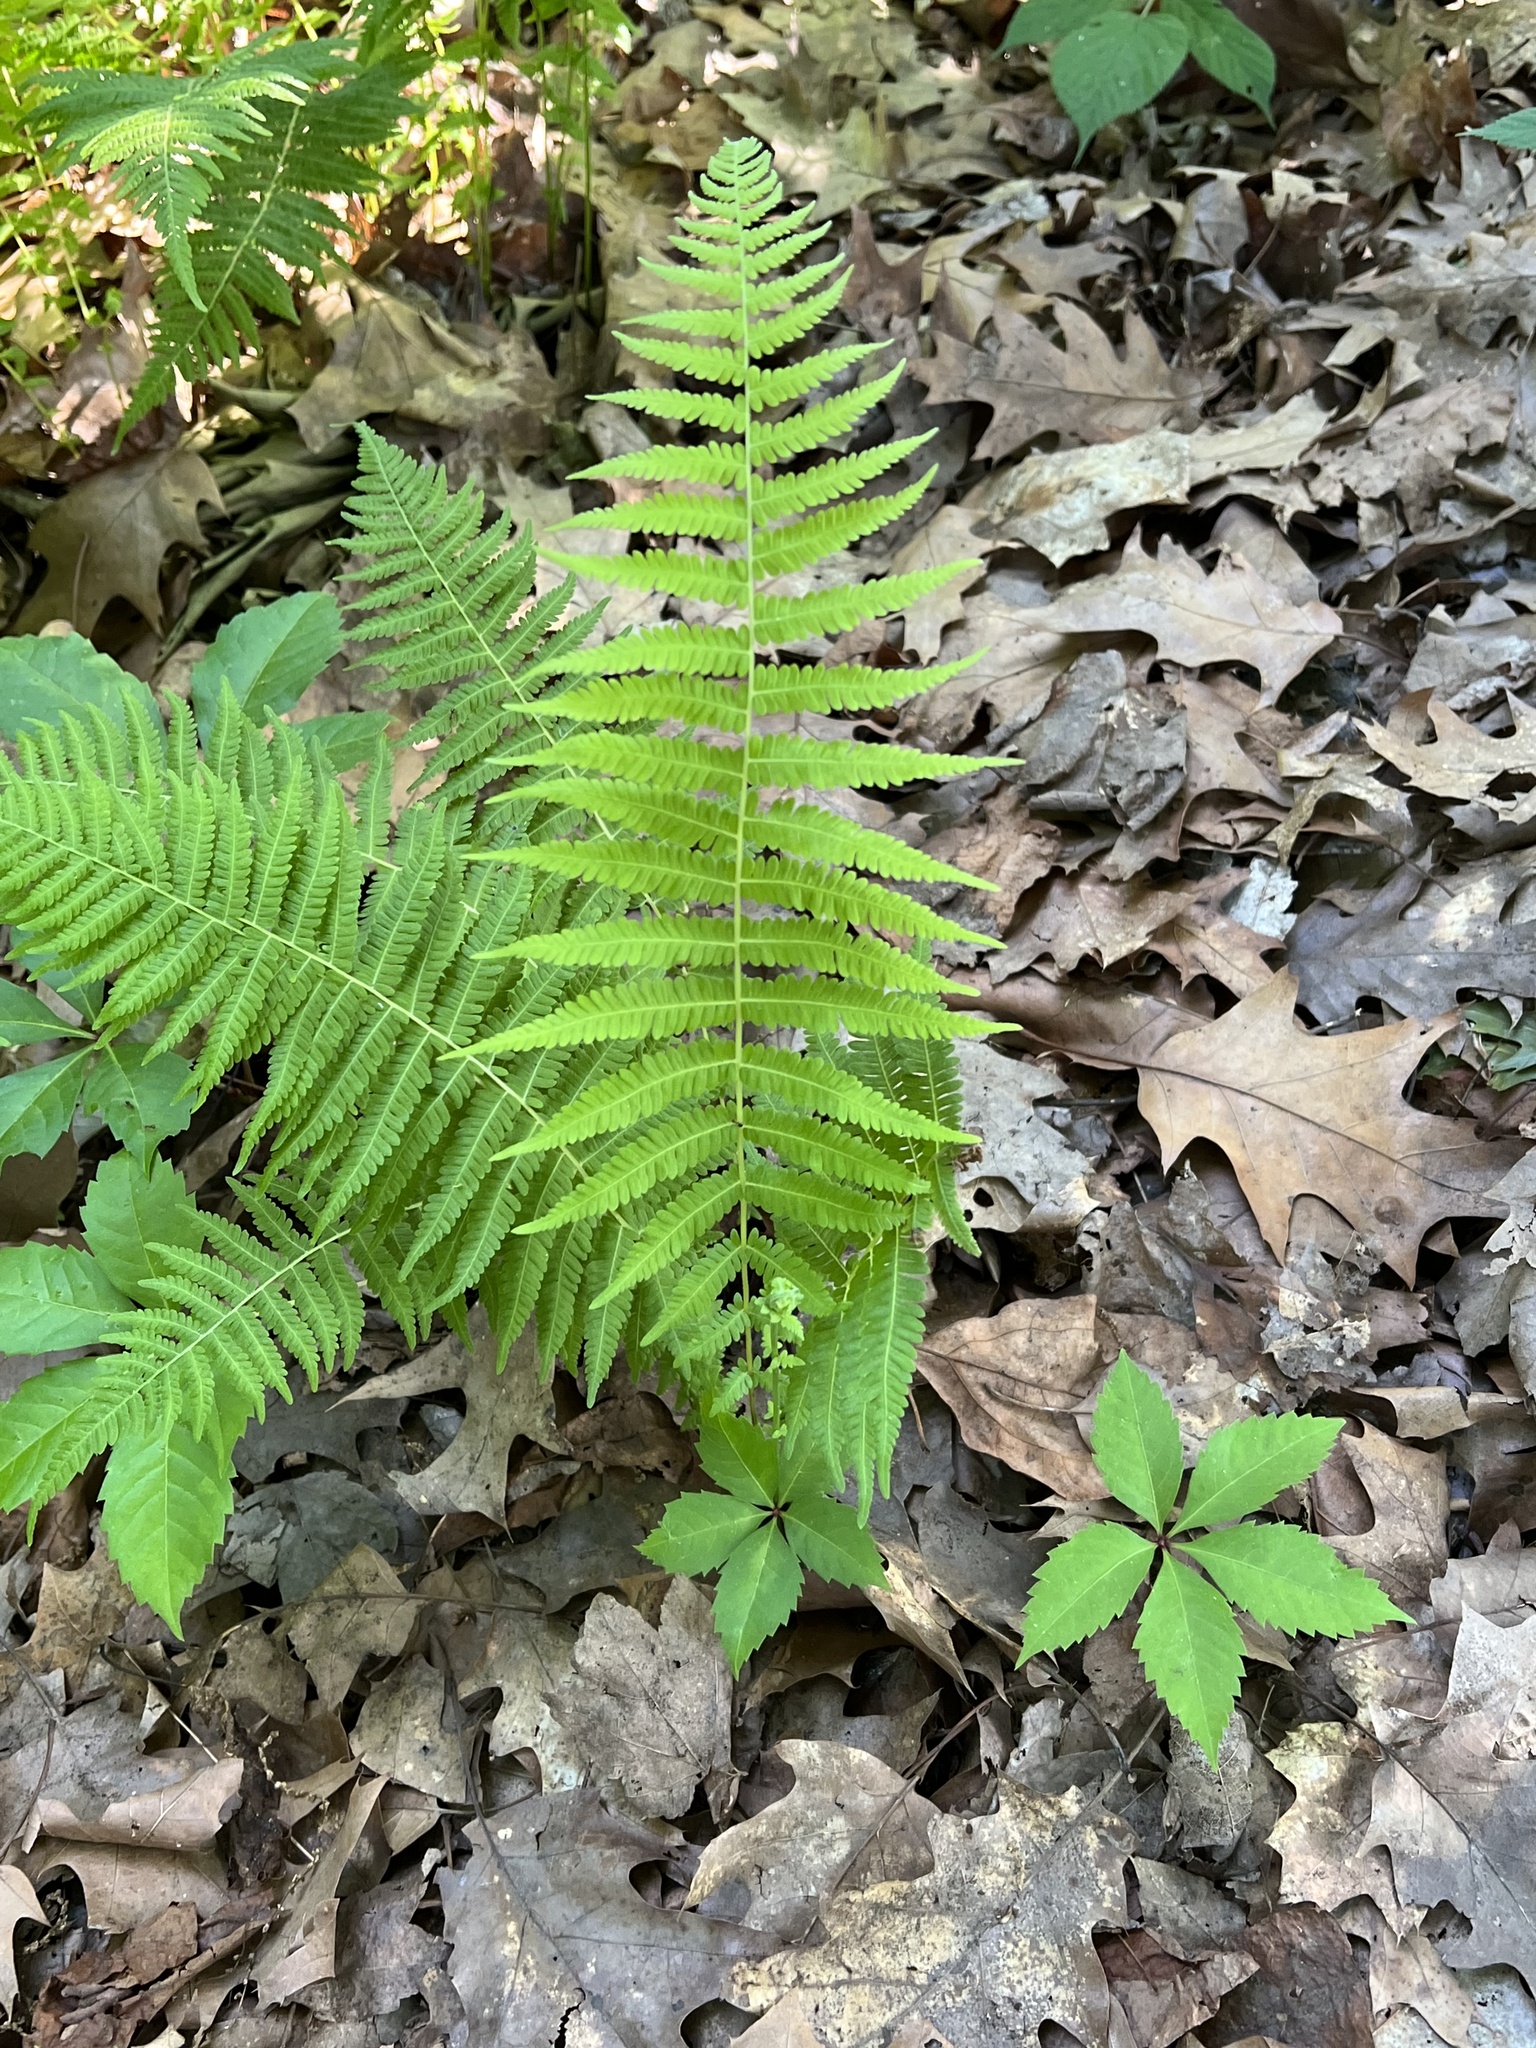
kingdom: Plantae
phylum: Tracheophyta
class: Polypodiopsida
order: Polypodiales
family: Thelypteridaceae
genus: Amauropelta
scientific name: Amauropelta noveboracensis
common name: New york fern
